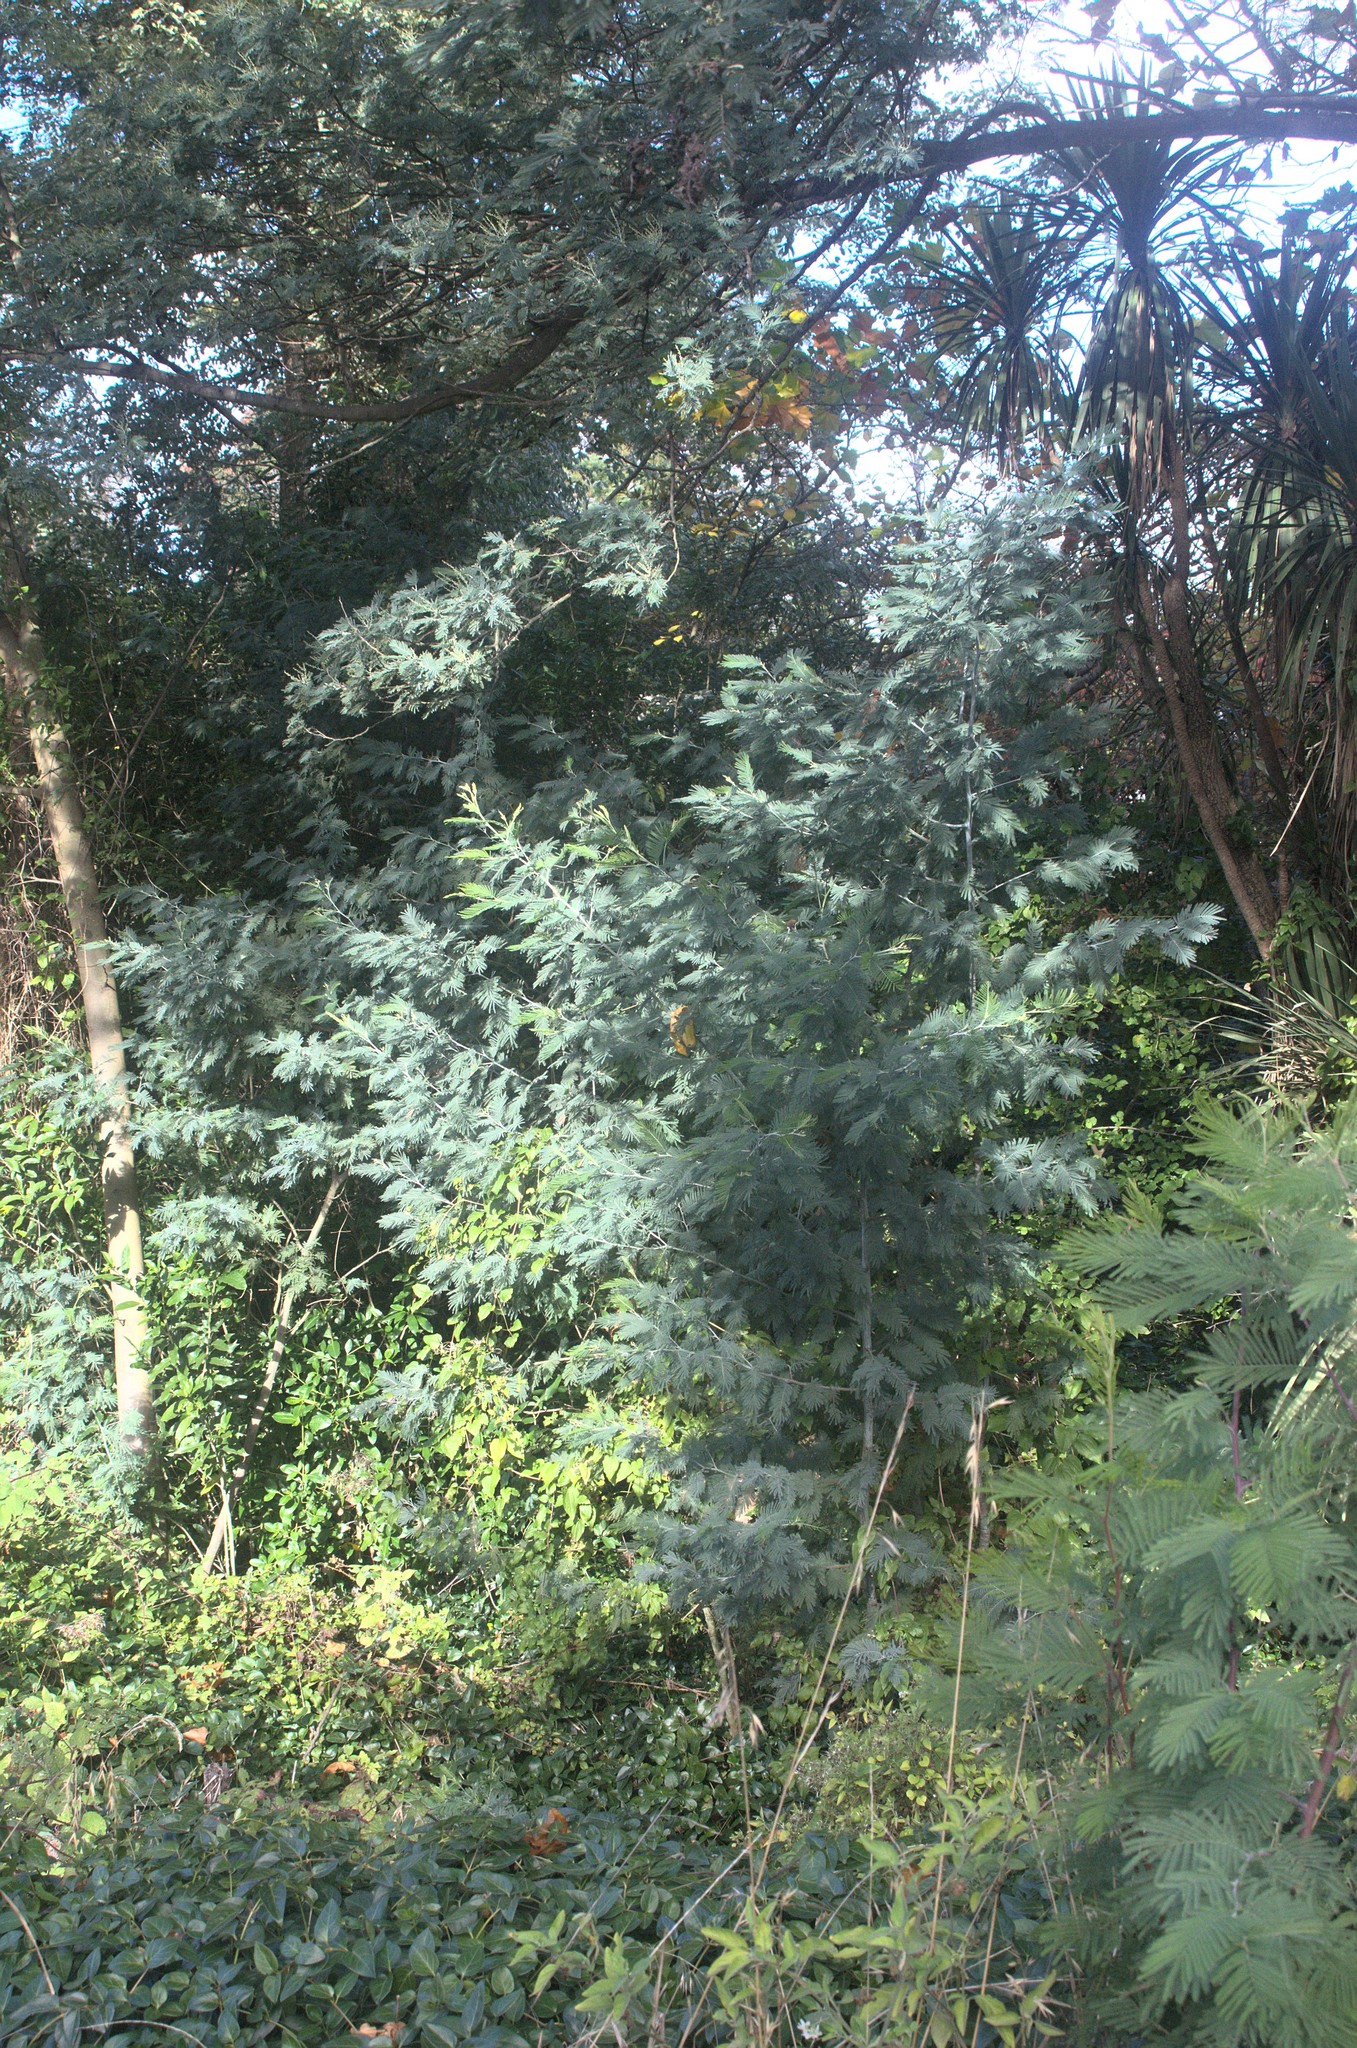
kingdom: Plantae
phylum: Tracheophyta
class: Magnoliopsida
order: Fabales
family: Fabaceae
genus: Acacia
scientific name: Acacia dealbata
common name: Silver wattle
